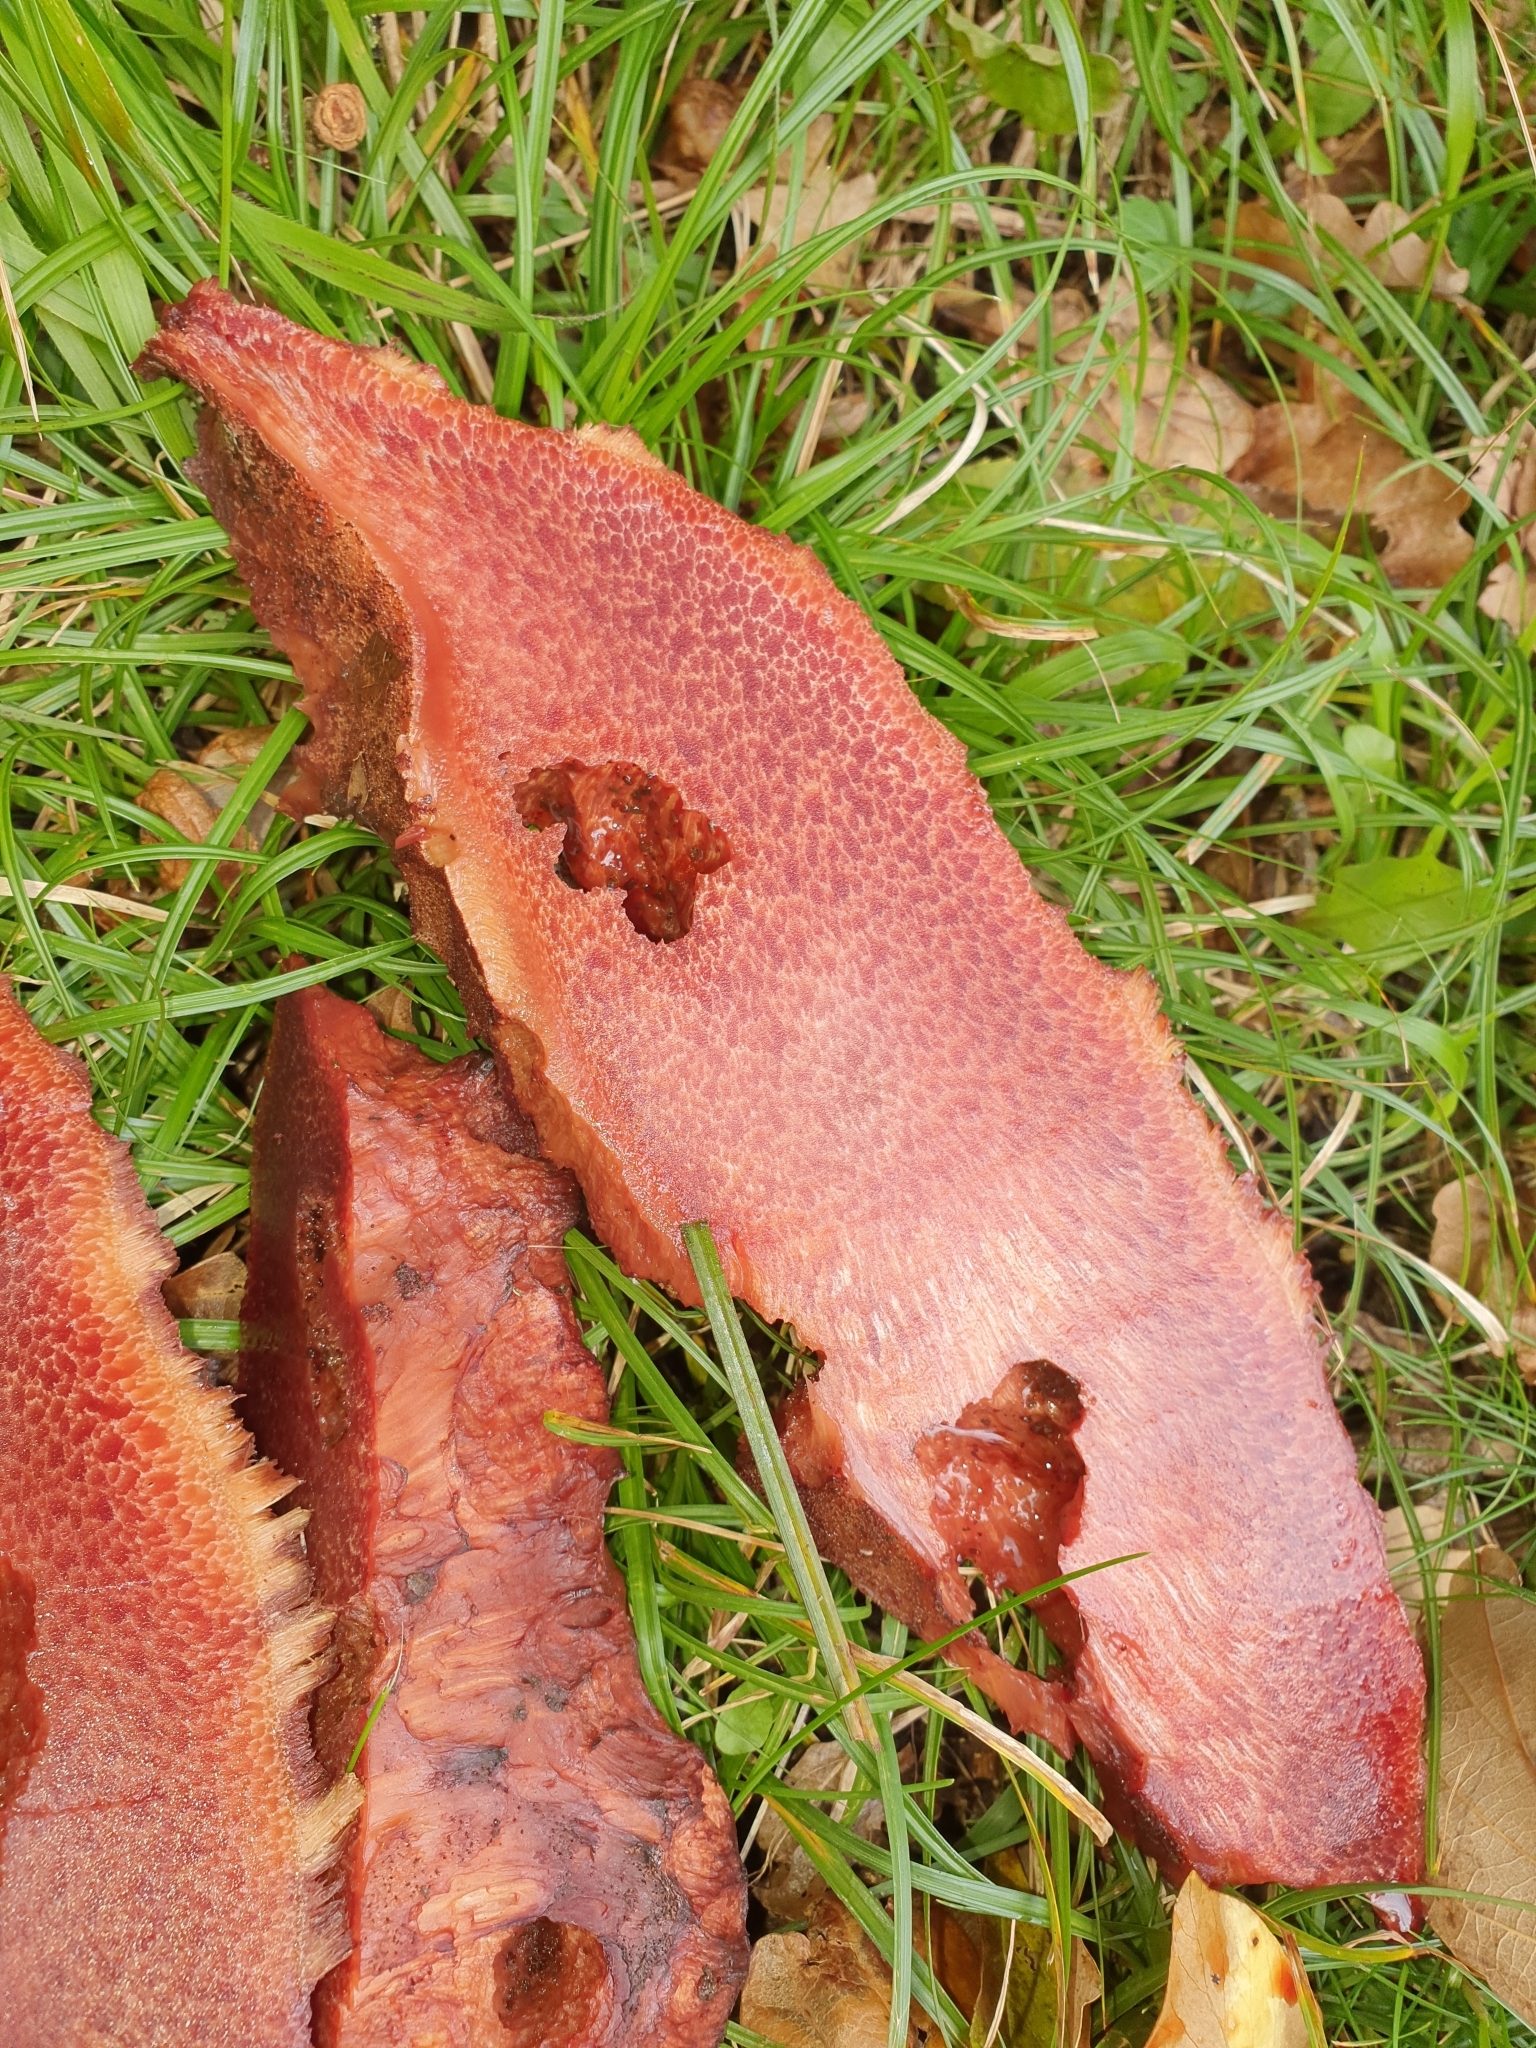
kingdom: Fungi
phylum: Basidiomycota
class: Agaricomycetes
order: Agaricales
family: Fistulinaceae
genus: Fistulina
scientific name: Fistulina hepatica
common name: Beef-steak fungus
